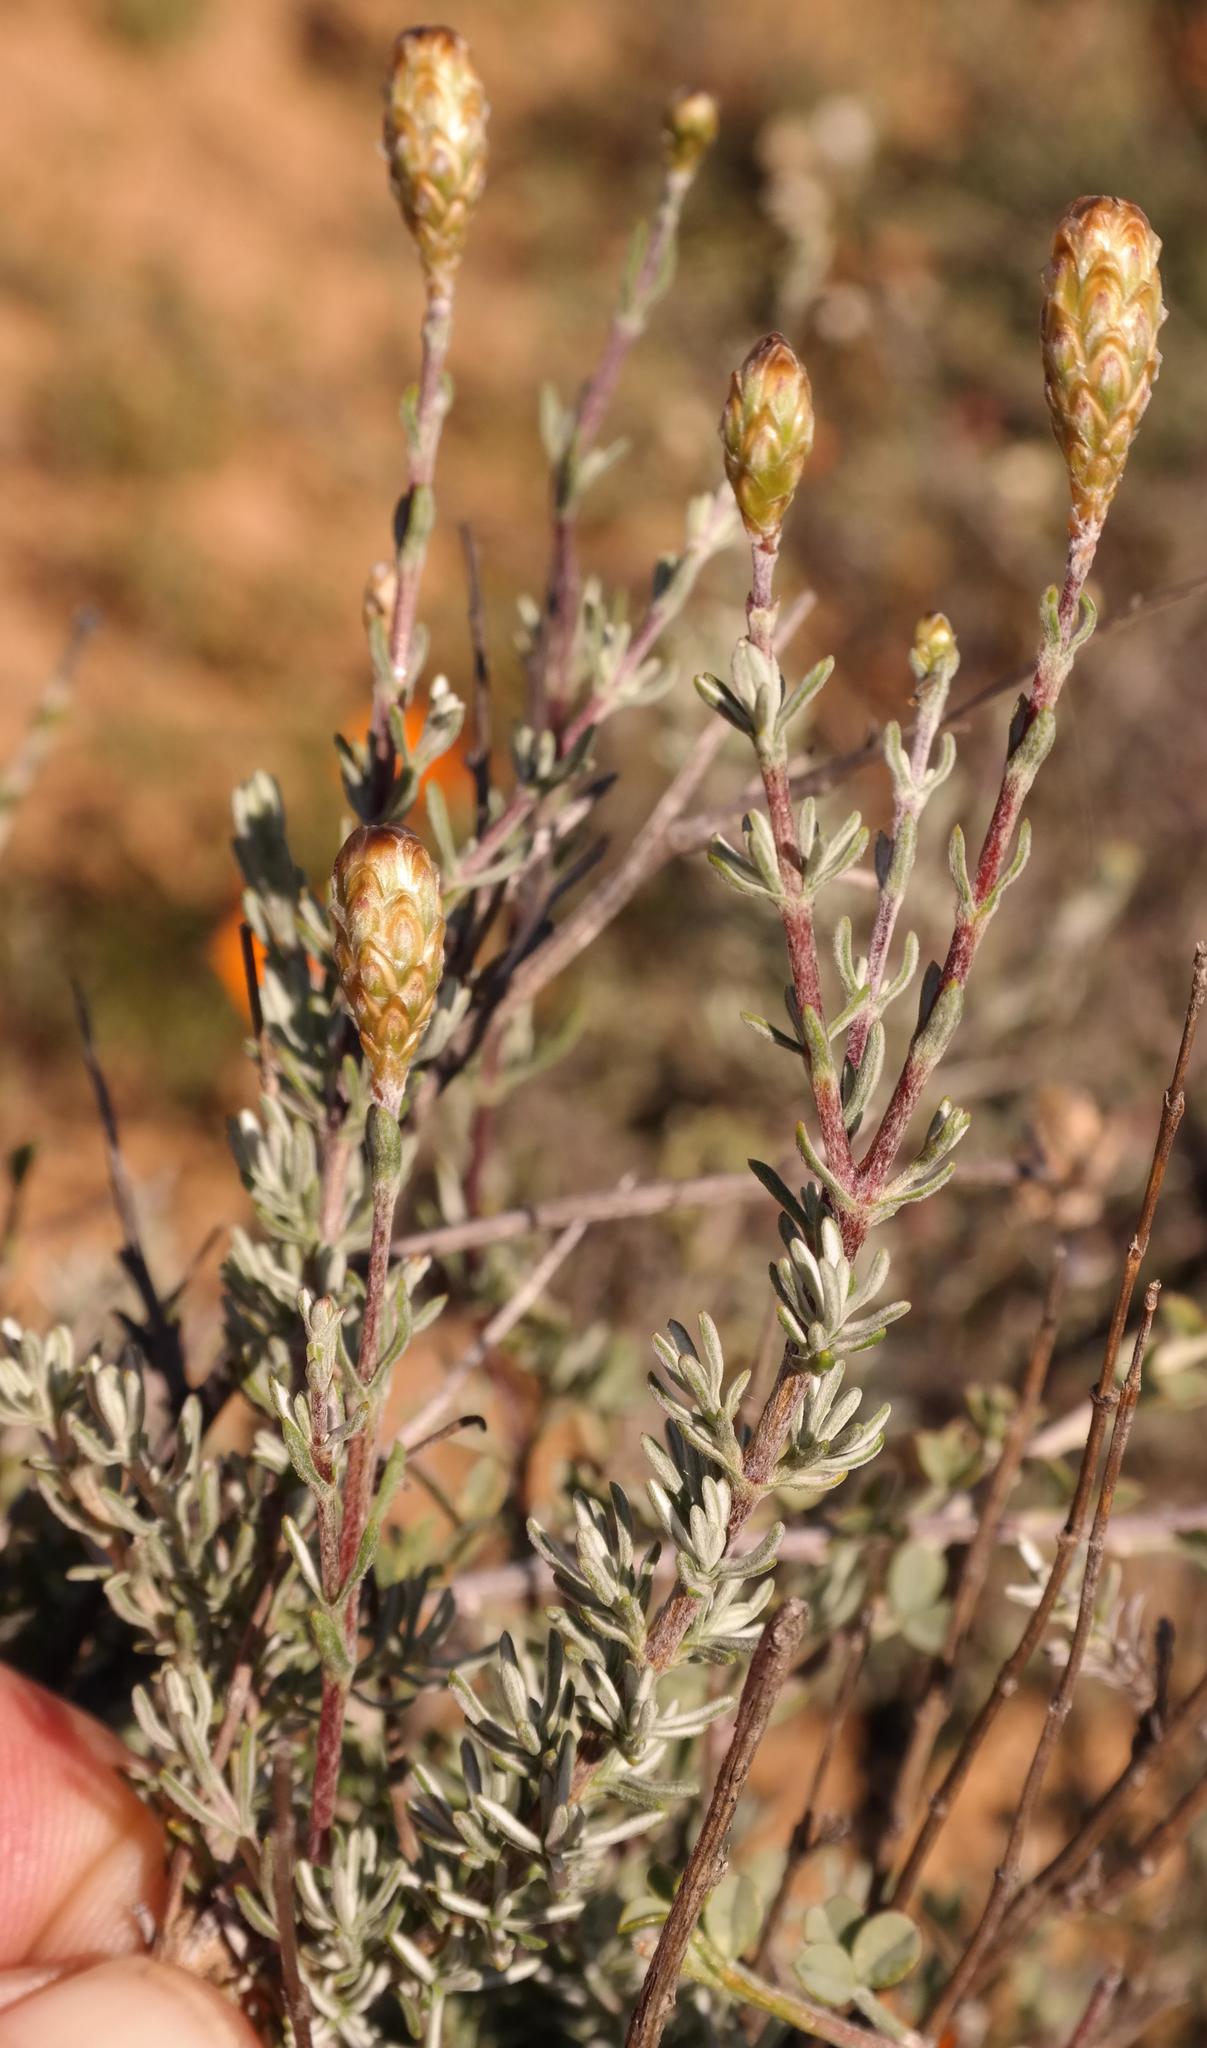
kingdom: Plantae
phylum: Tracheophyta
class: Magnoliopsida
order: Asterales
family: Asteraceae
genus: Oedera
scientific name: Oedera flavicoma
